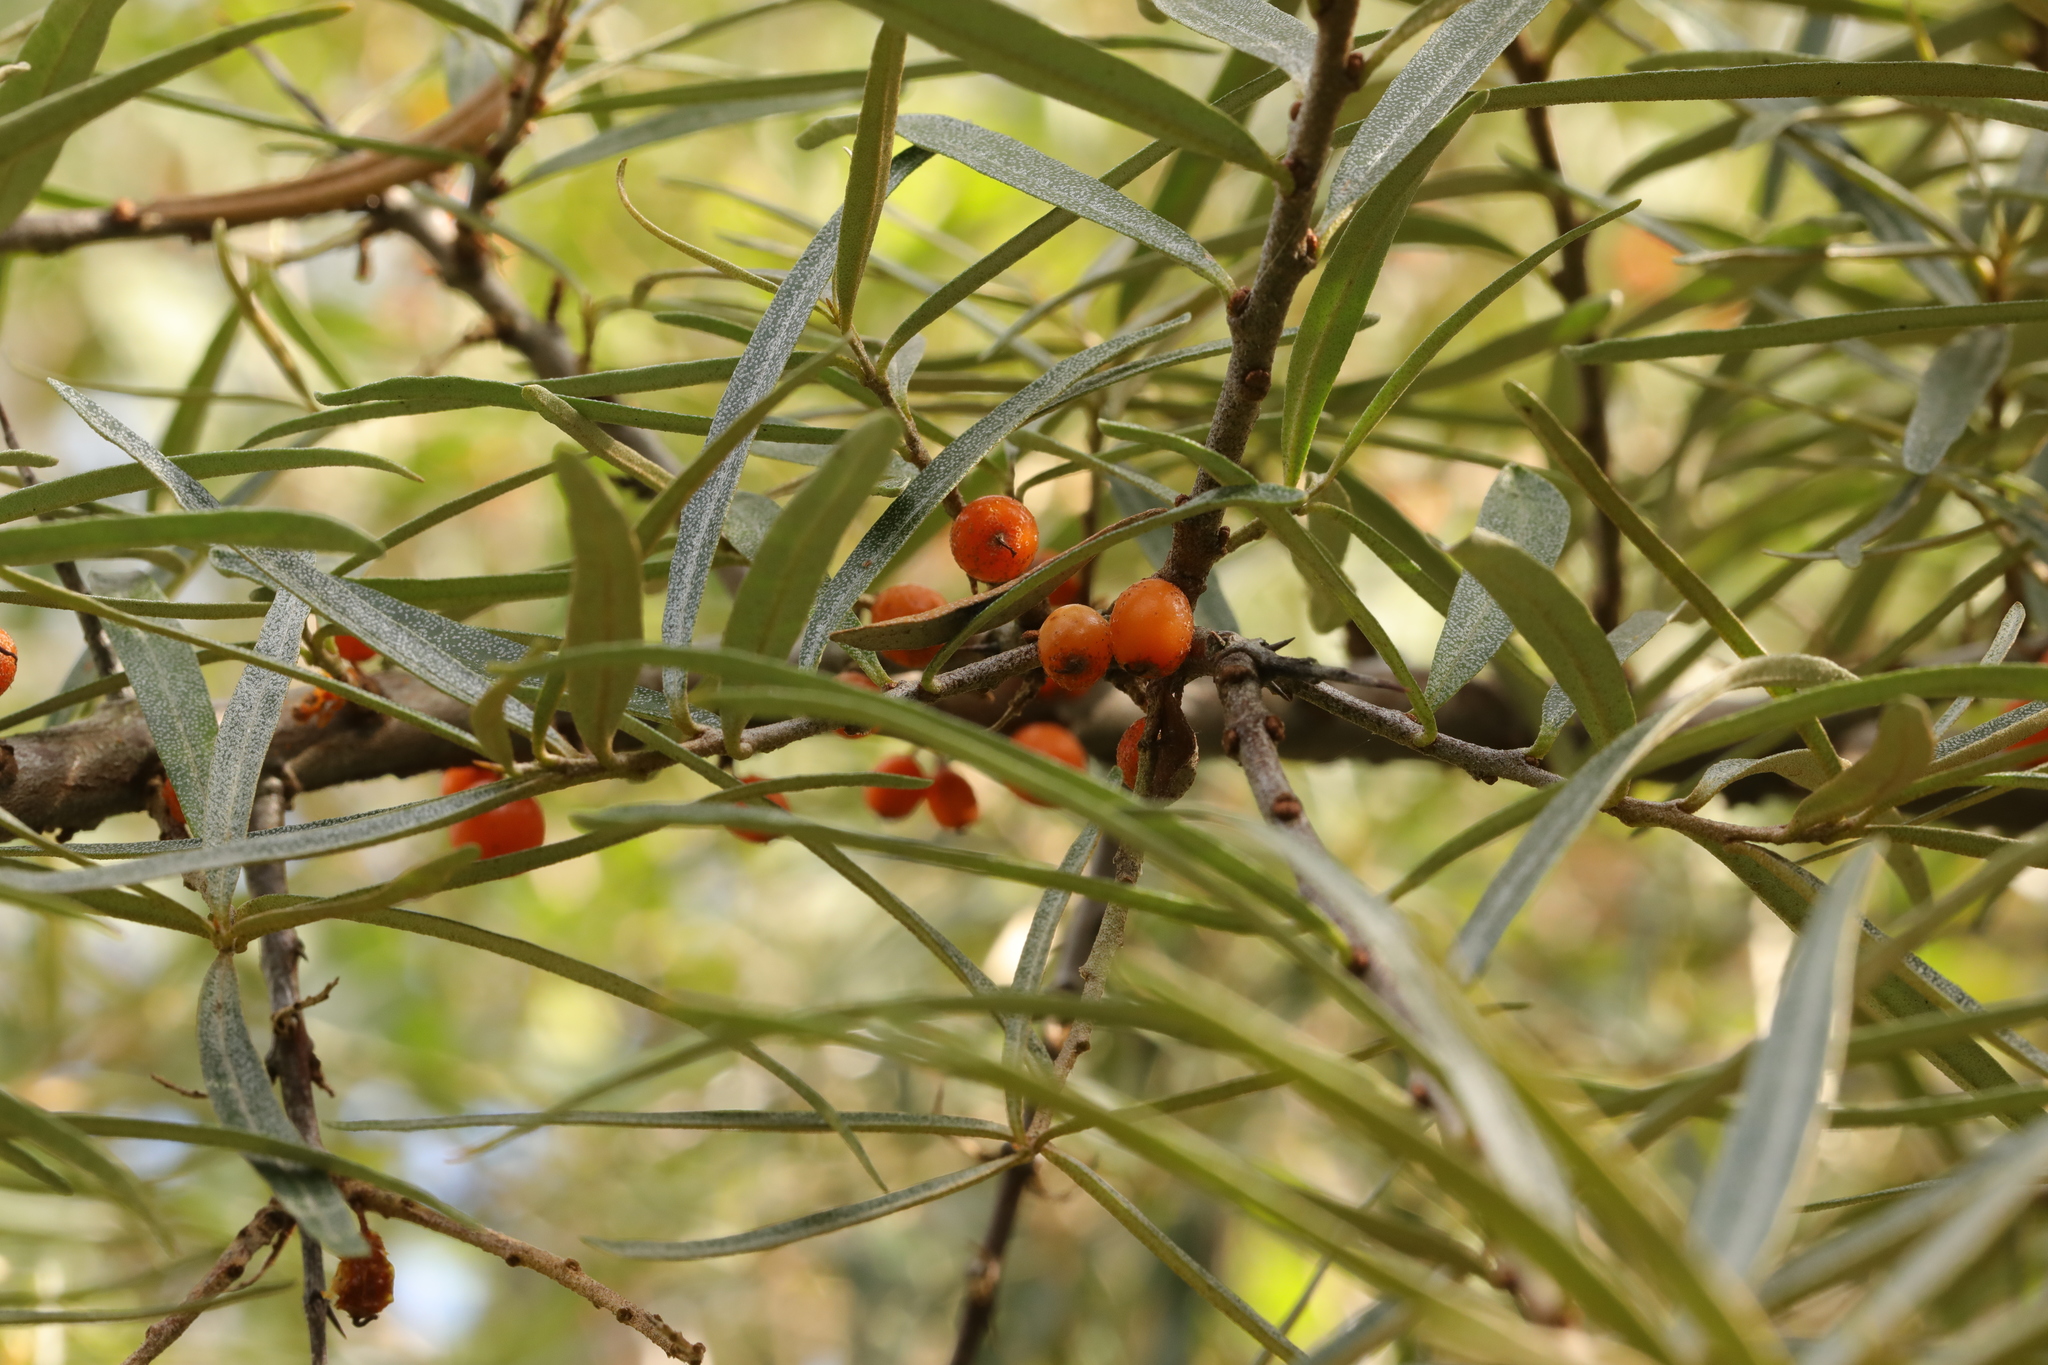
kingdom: Plantae
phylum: Tracheophyta
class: Magnoliopsida
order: Rosales
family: Elaeagnaceae
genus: Hippophae
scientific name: Hippophae rhamnoides
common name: Sea-buckthorn
